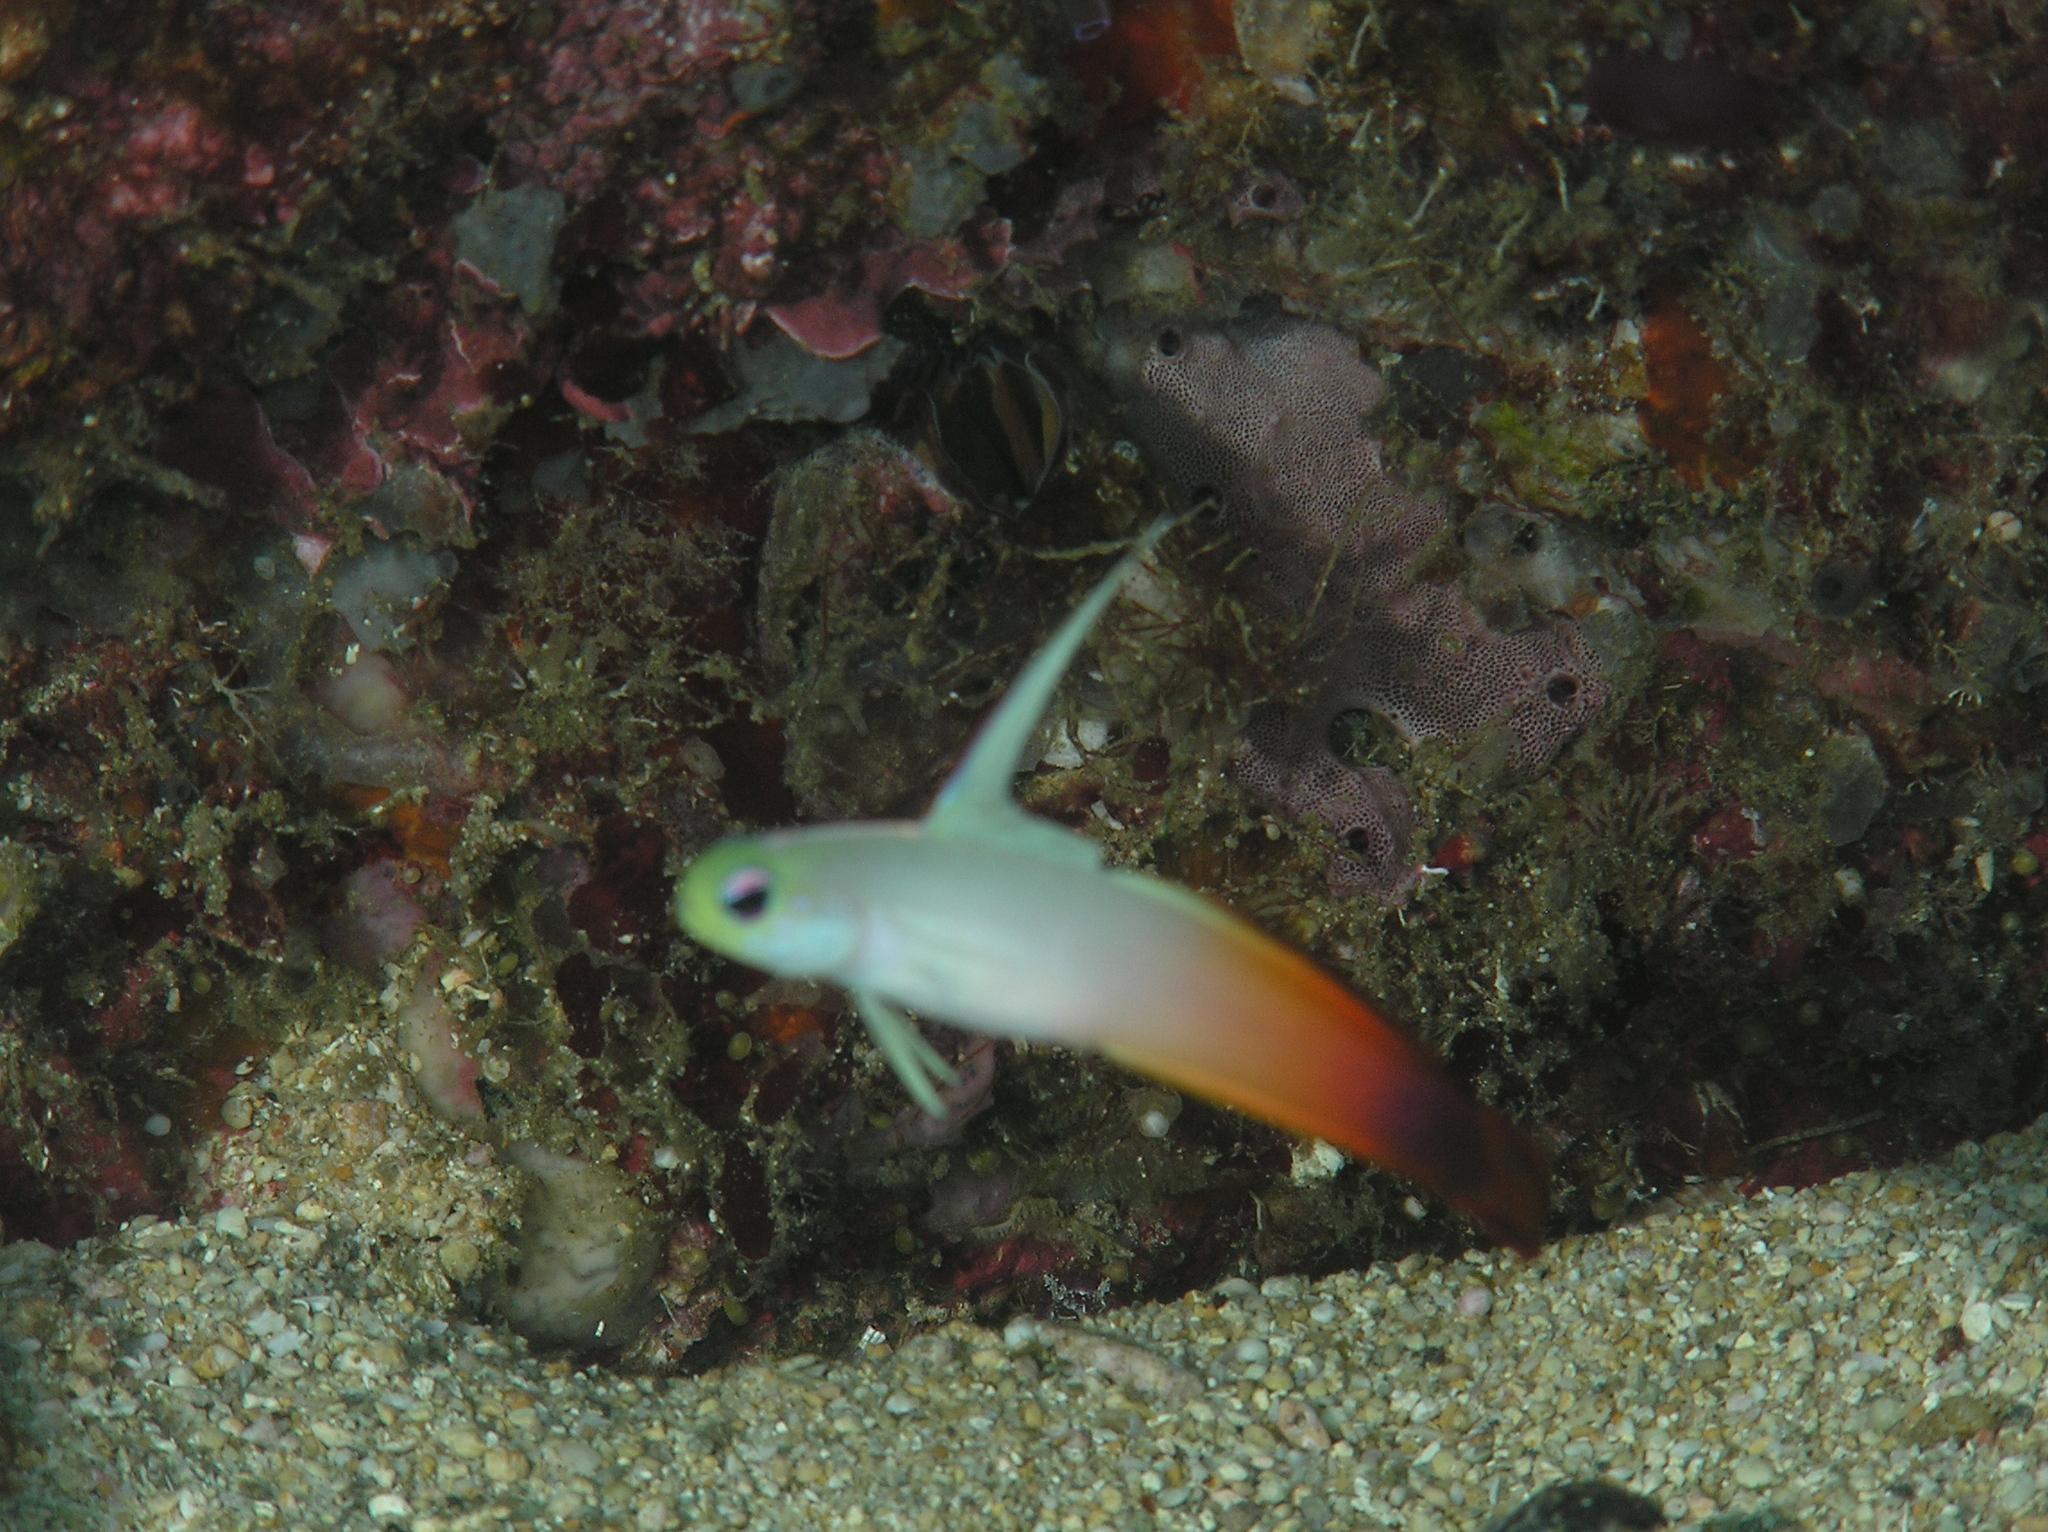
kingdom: Animalia
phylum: Chordata
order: Perciformes
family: Microdesmidae
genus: Nemateleotris
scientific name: Nemateleotris magnifica
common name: Fire goby
